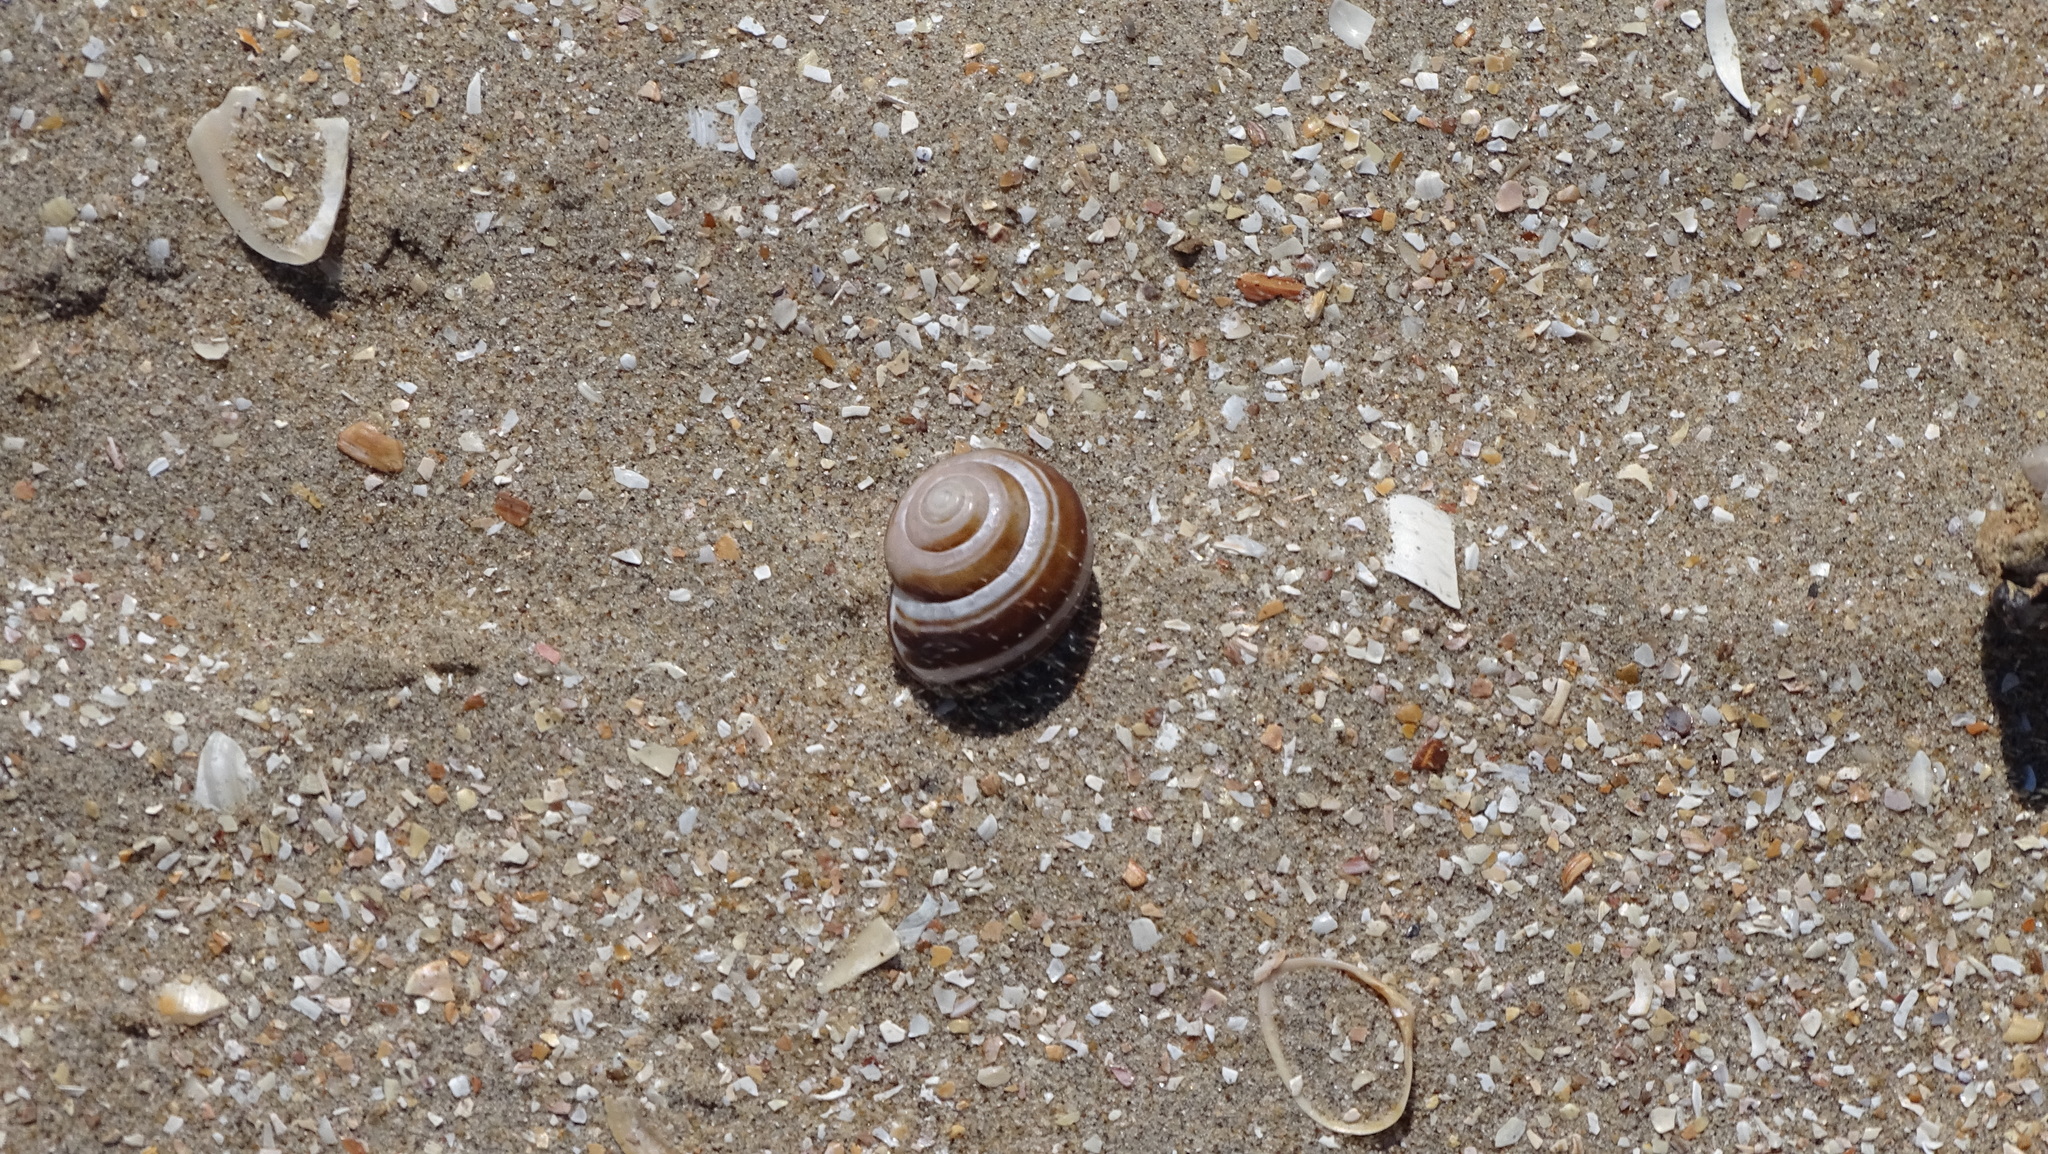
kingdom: Animalia
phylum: Mollusca
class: Gastropoda
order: Stylommatophora
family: Helicidae
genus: Cepaea
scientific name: Cepaea nemoralis
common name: Grovesnail
